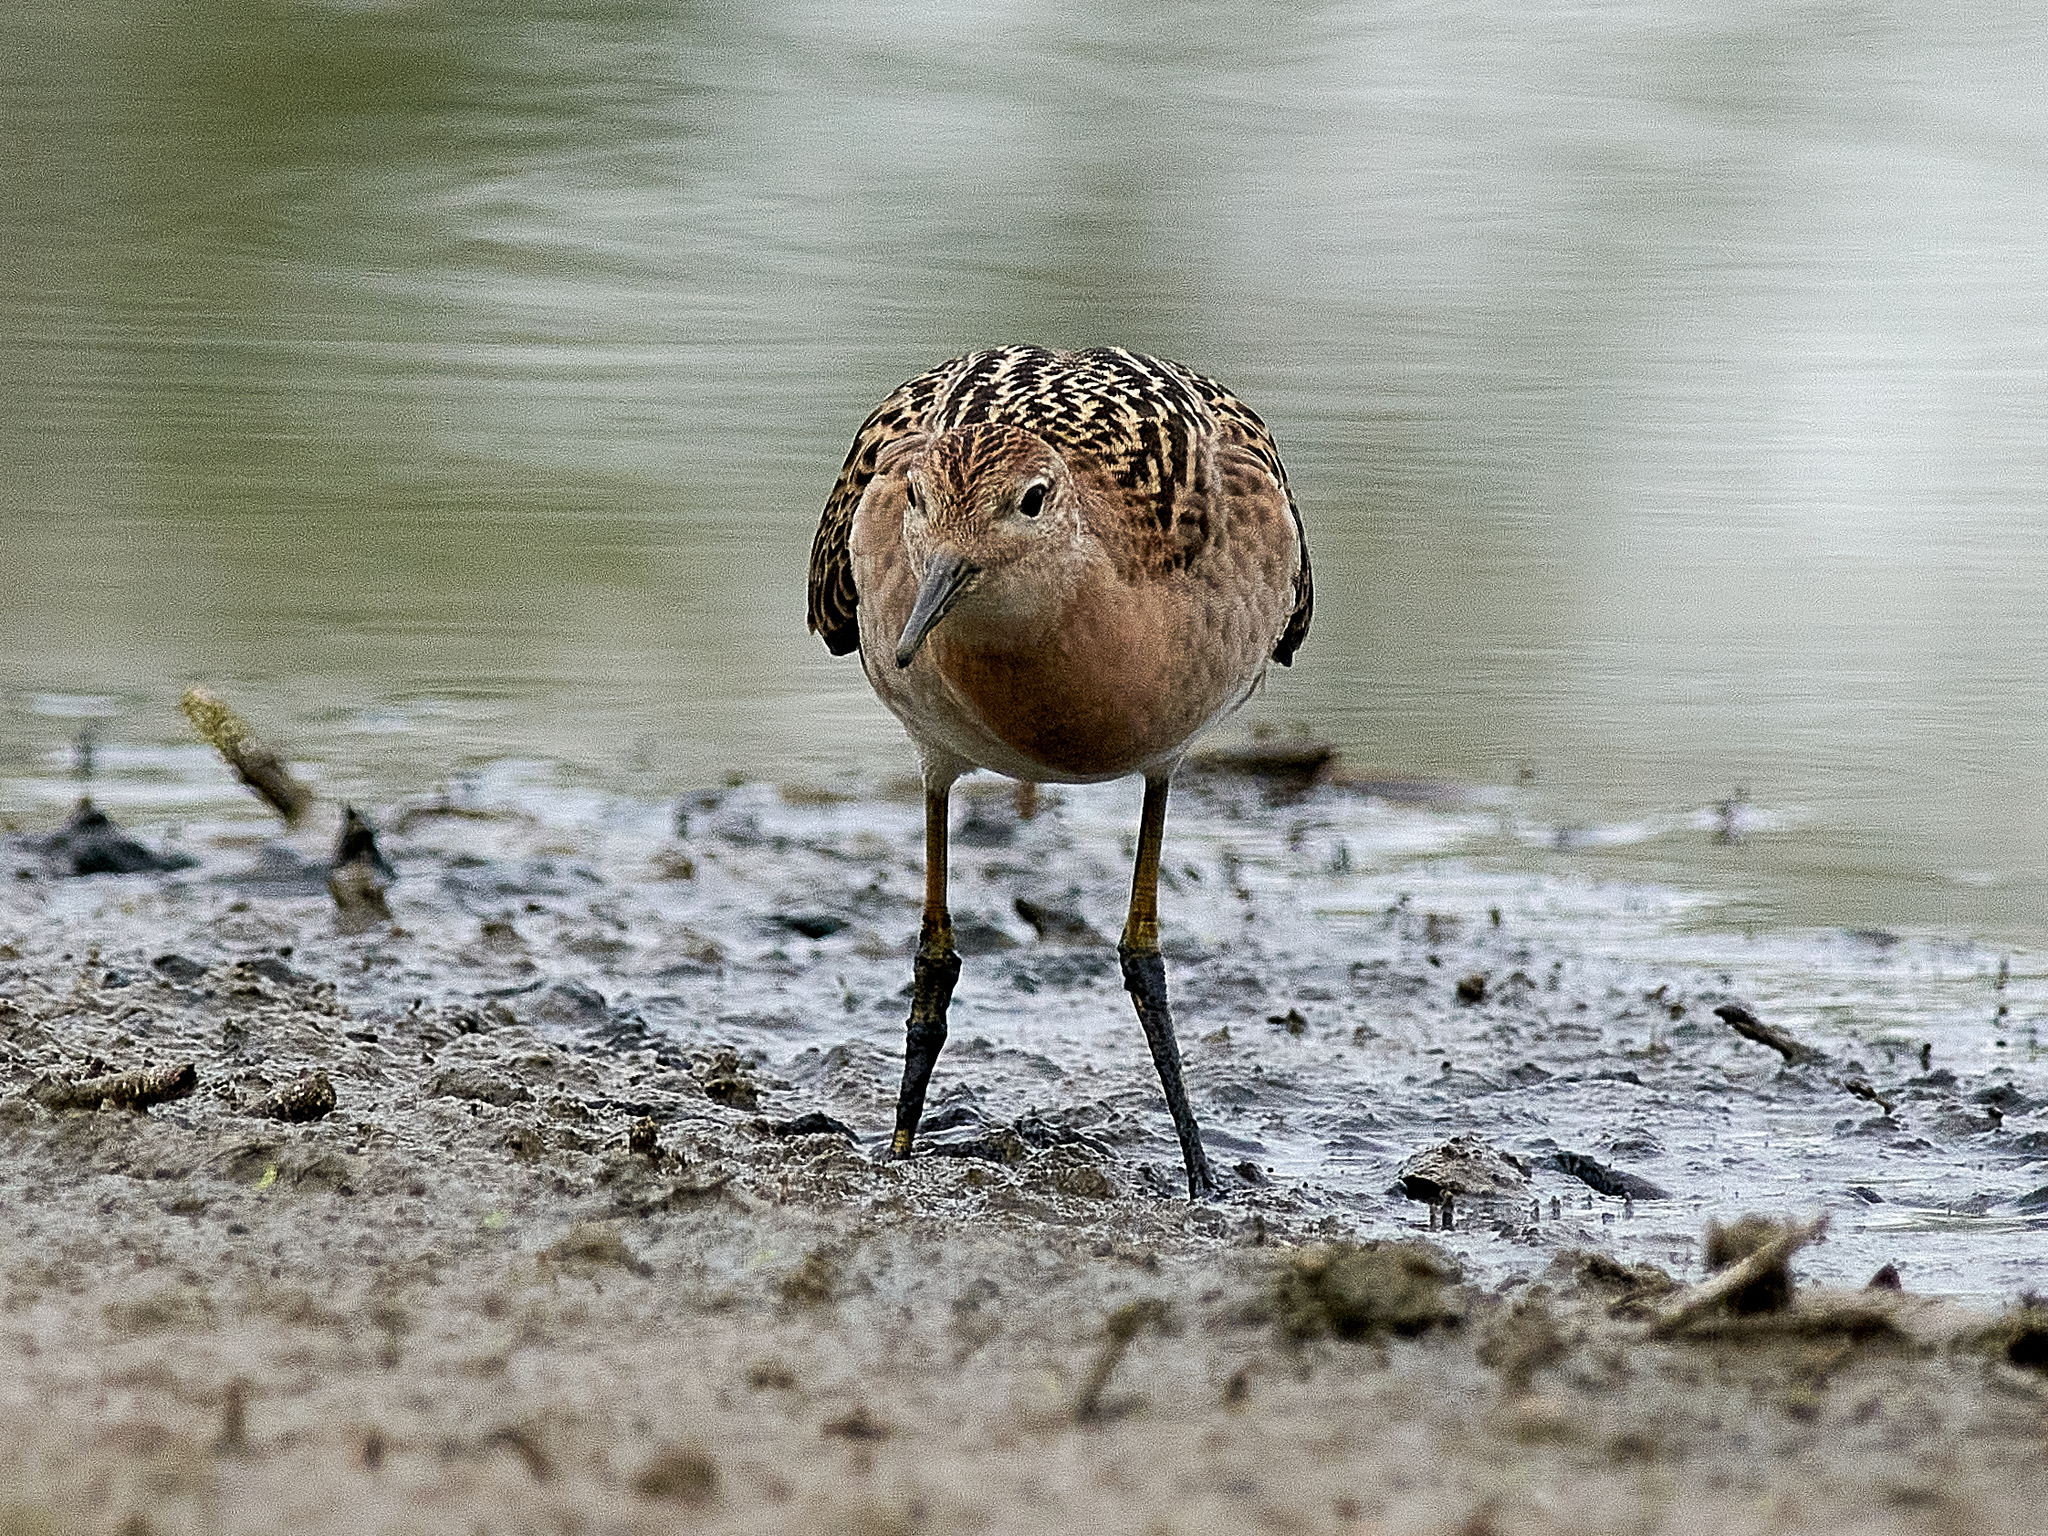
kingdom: Animalia
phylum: Chordata
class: Aves
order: Charadriiformes
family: Scolopacidae
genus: Calidris
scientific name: Calidris pugnax
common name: Ruff
